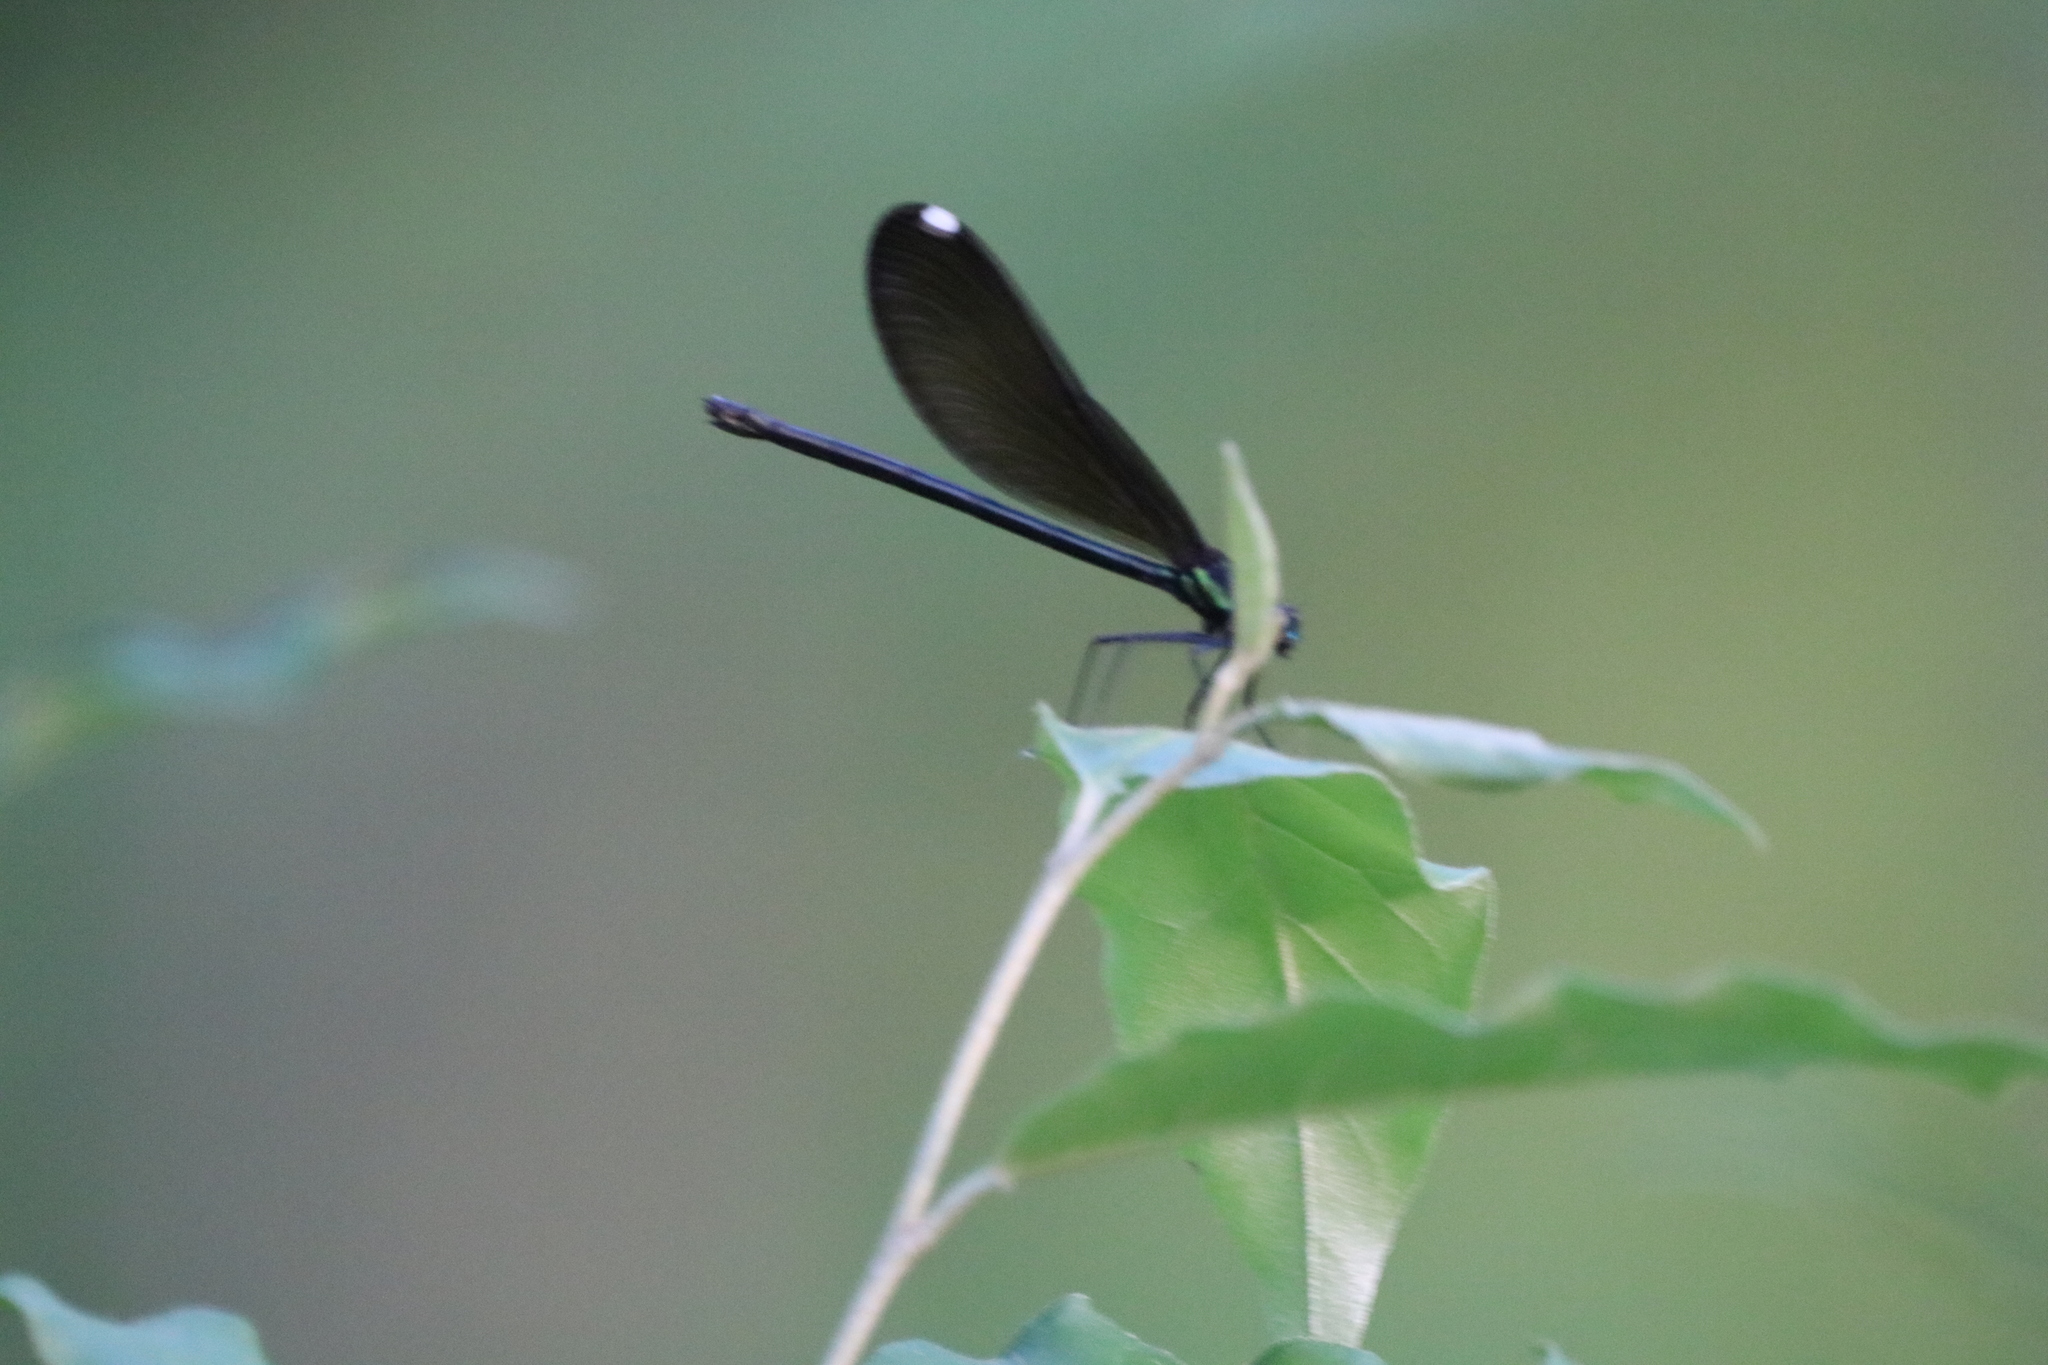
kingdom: Animalia
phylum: Arthropoda
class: Insecta
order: Odonata
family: Calopterygidae
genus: Calopteryx
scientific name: Calopteryx maculata
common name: Ebony jewelwing
